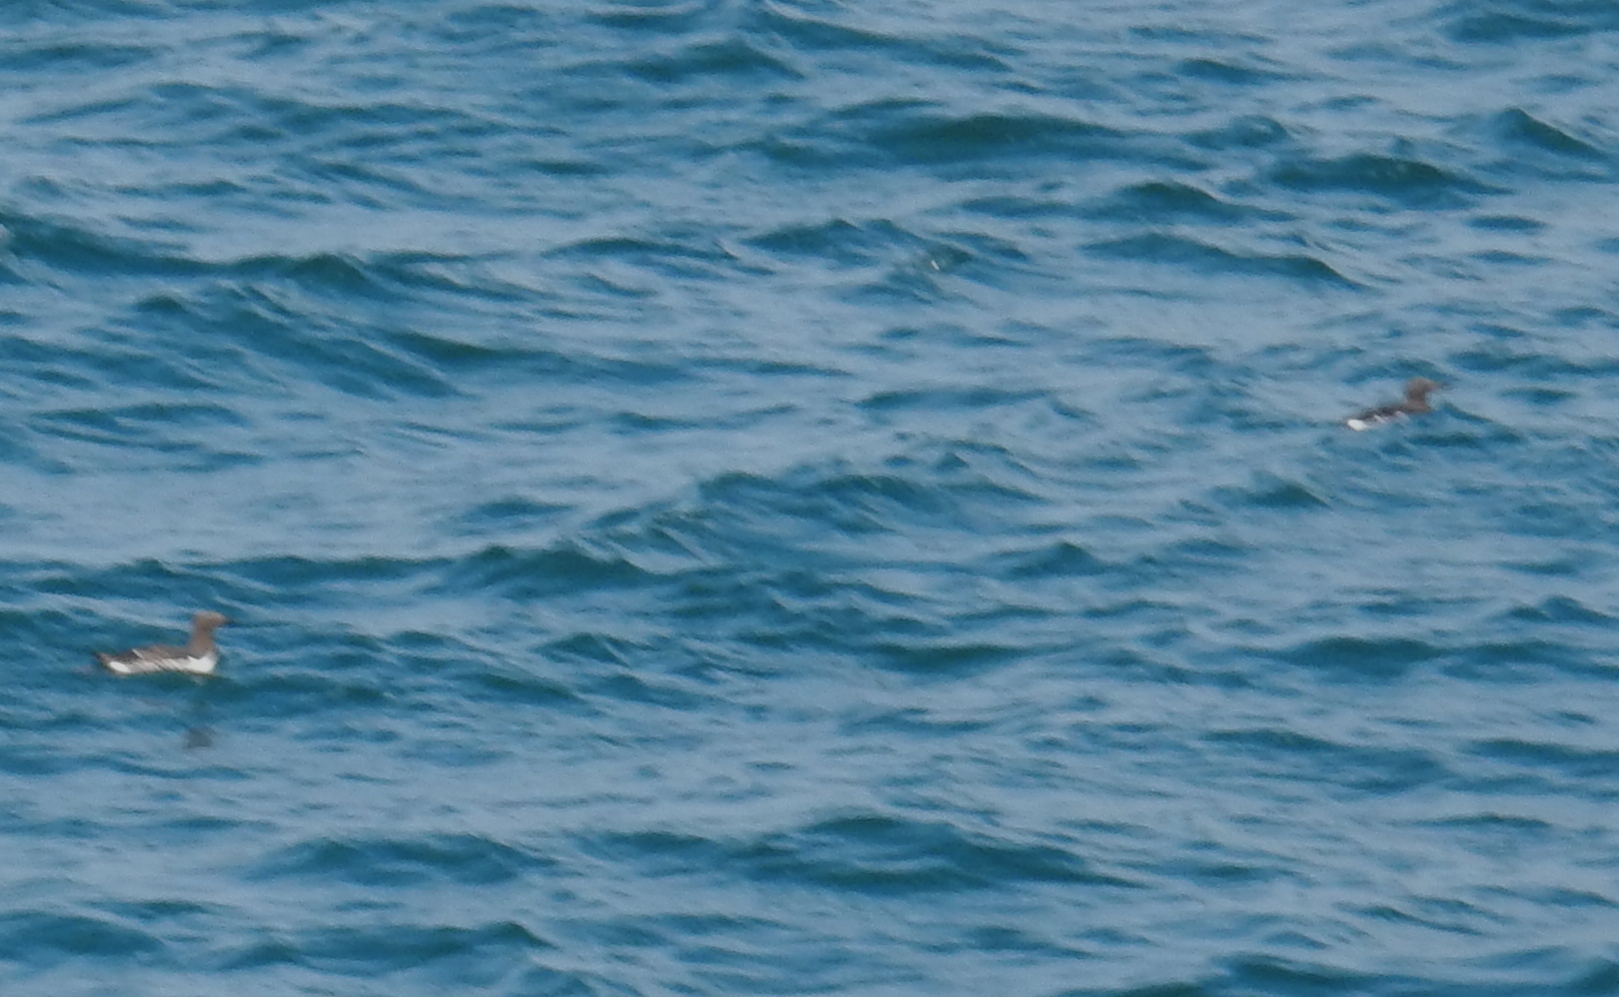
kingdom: Animalia
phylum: Chordata
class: Aves
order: Charadriiformes
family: Alcidae
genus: Uria
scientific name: Uria aalge
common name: Common murre
